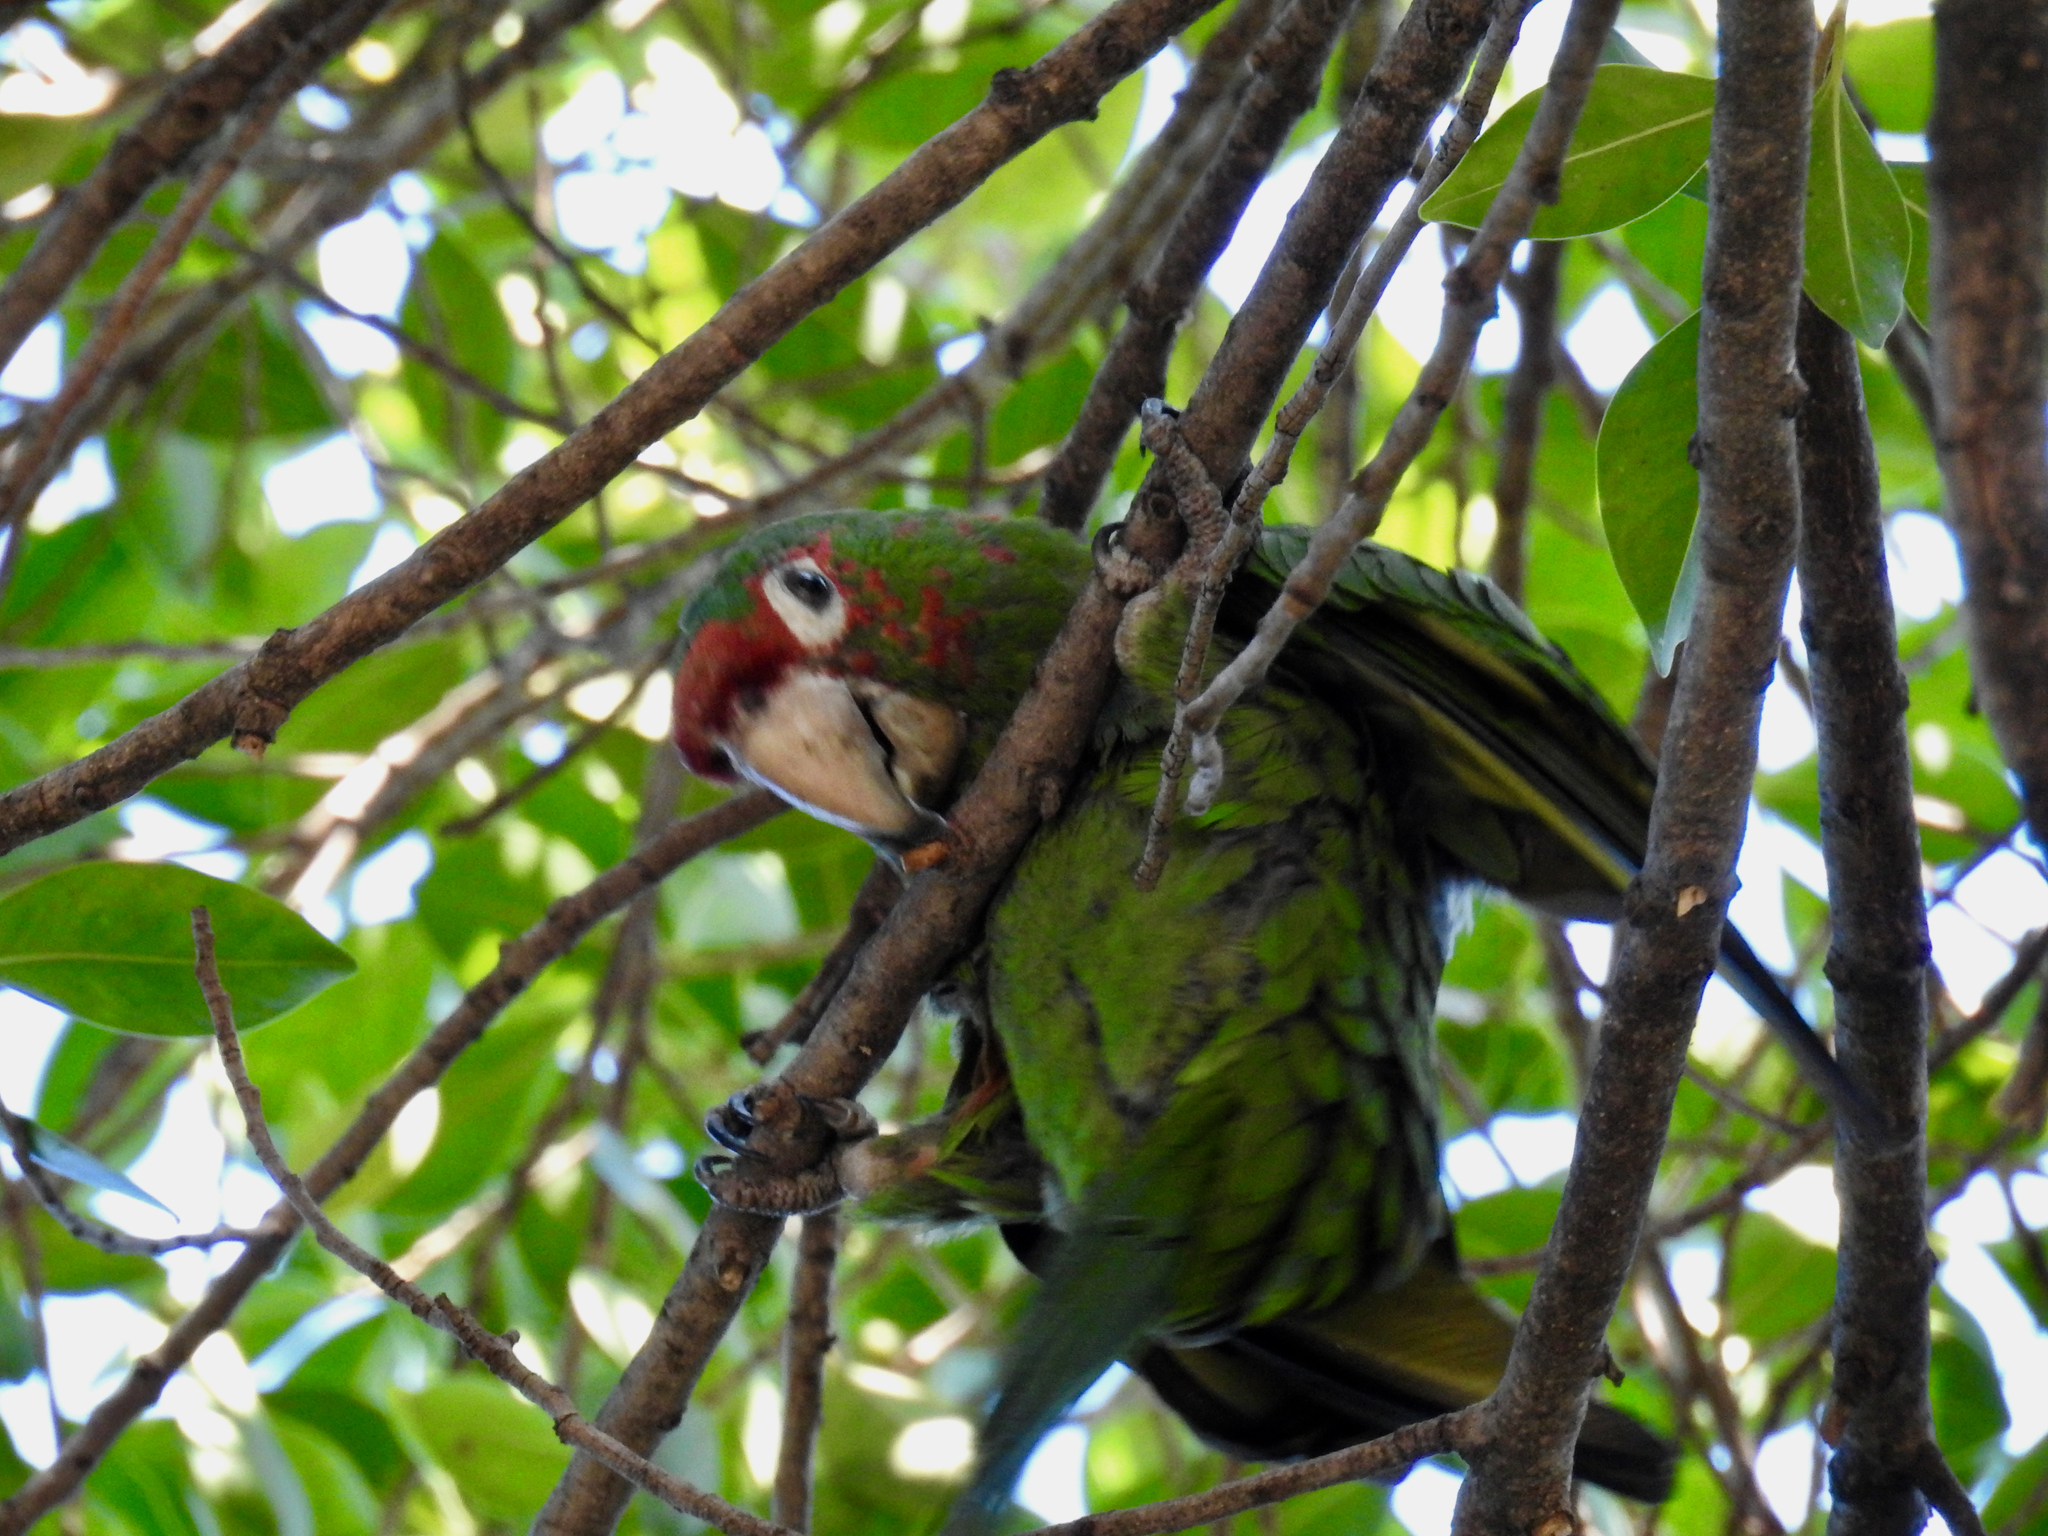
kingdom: Animalia
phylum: Chordata
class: Aves
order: Psittaciformes
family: Psittacidae
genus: Aratinga
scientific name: Aratinga mitrata
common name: Mitred parakeet
